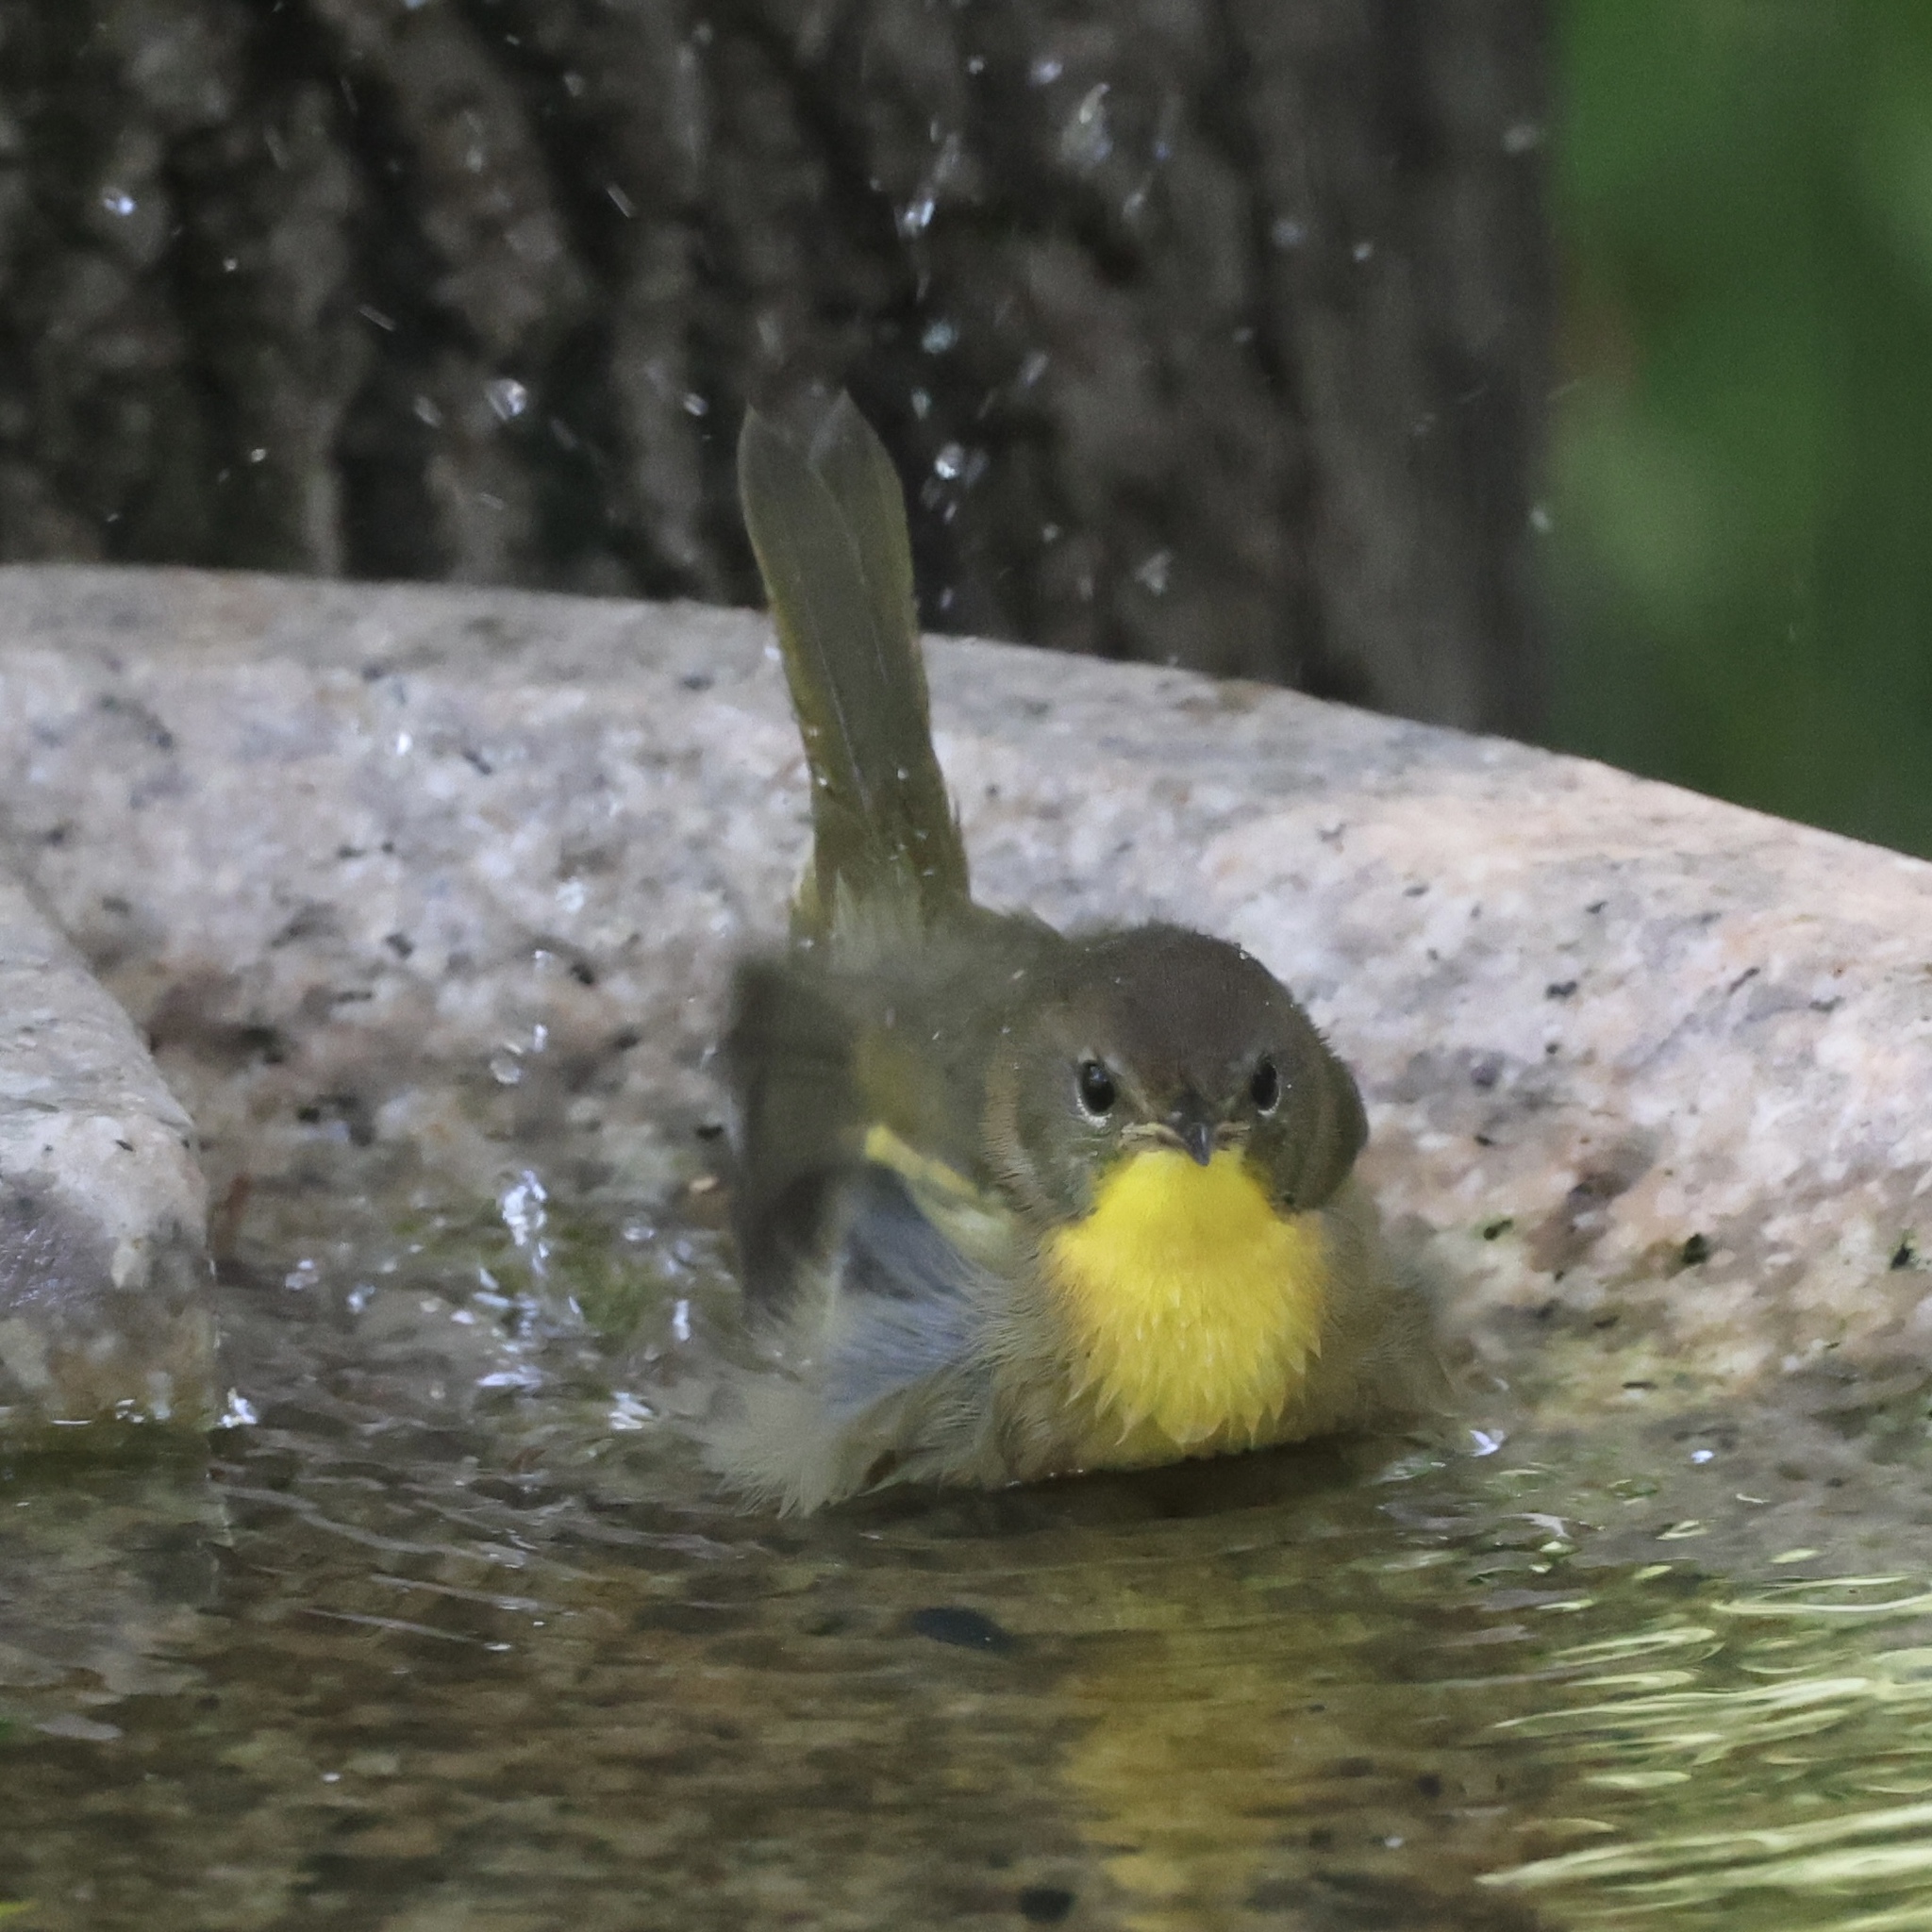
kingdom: Animalia
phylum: Chordata
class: Aves
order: Passeriformes
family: Parulidae
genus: Geothlypis
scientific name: Geothlypis trichas
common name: Common yellowthroat
